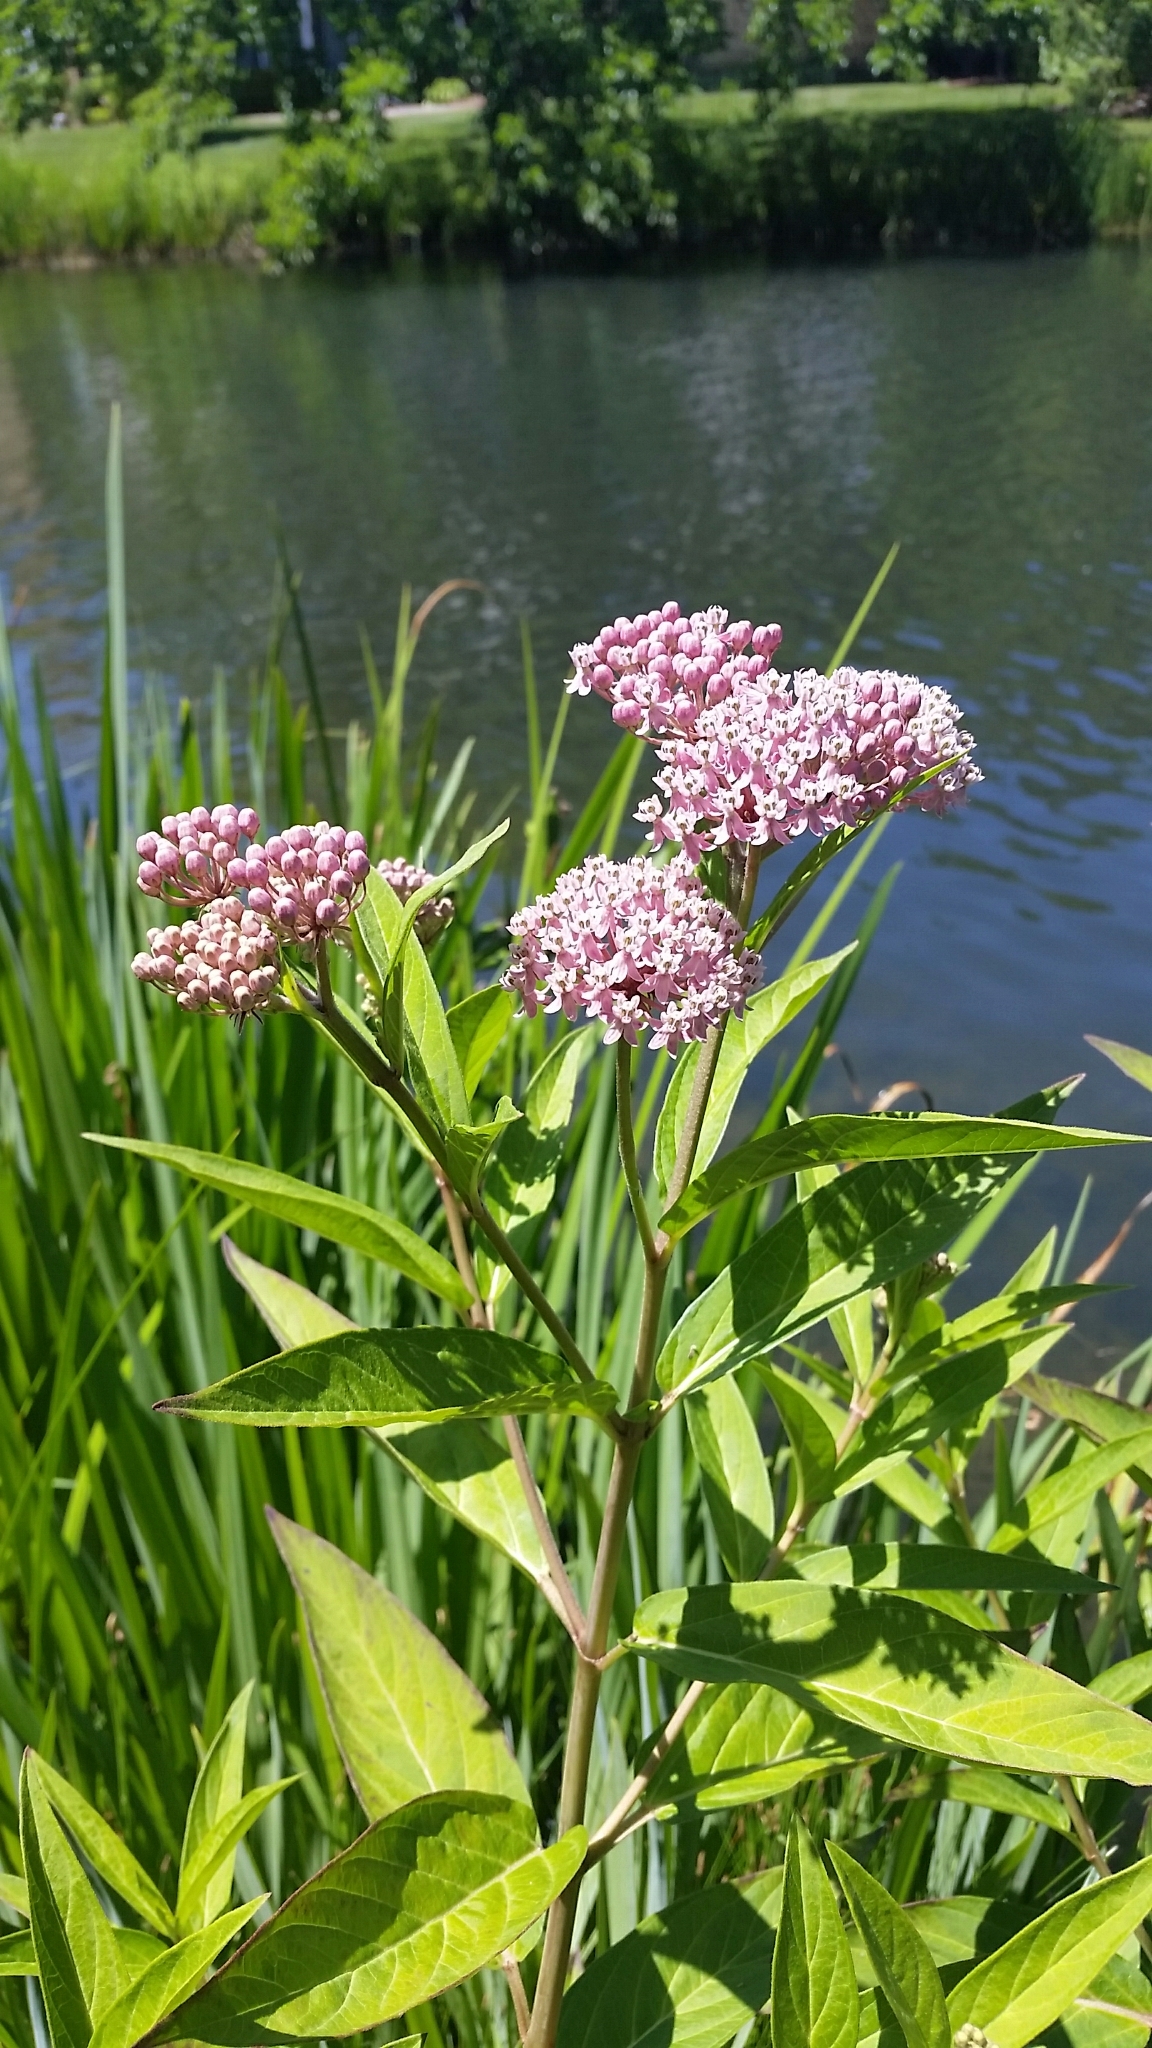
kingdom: Plantae
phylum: Tracheophyta
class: Magnoliopsida
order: Gentianales
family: Apocynaceae
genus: Asclepias
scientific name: Asclepias incarnata
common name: Swamp milkweed
